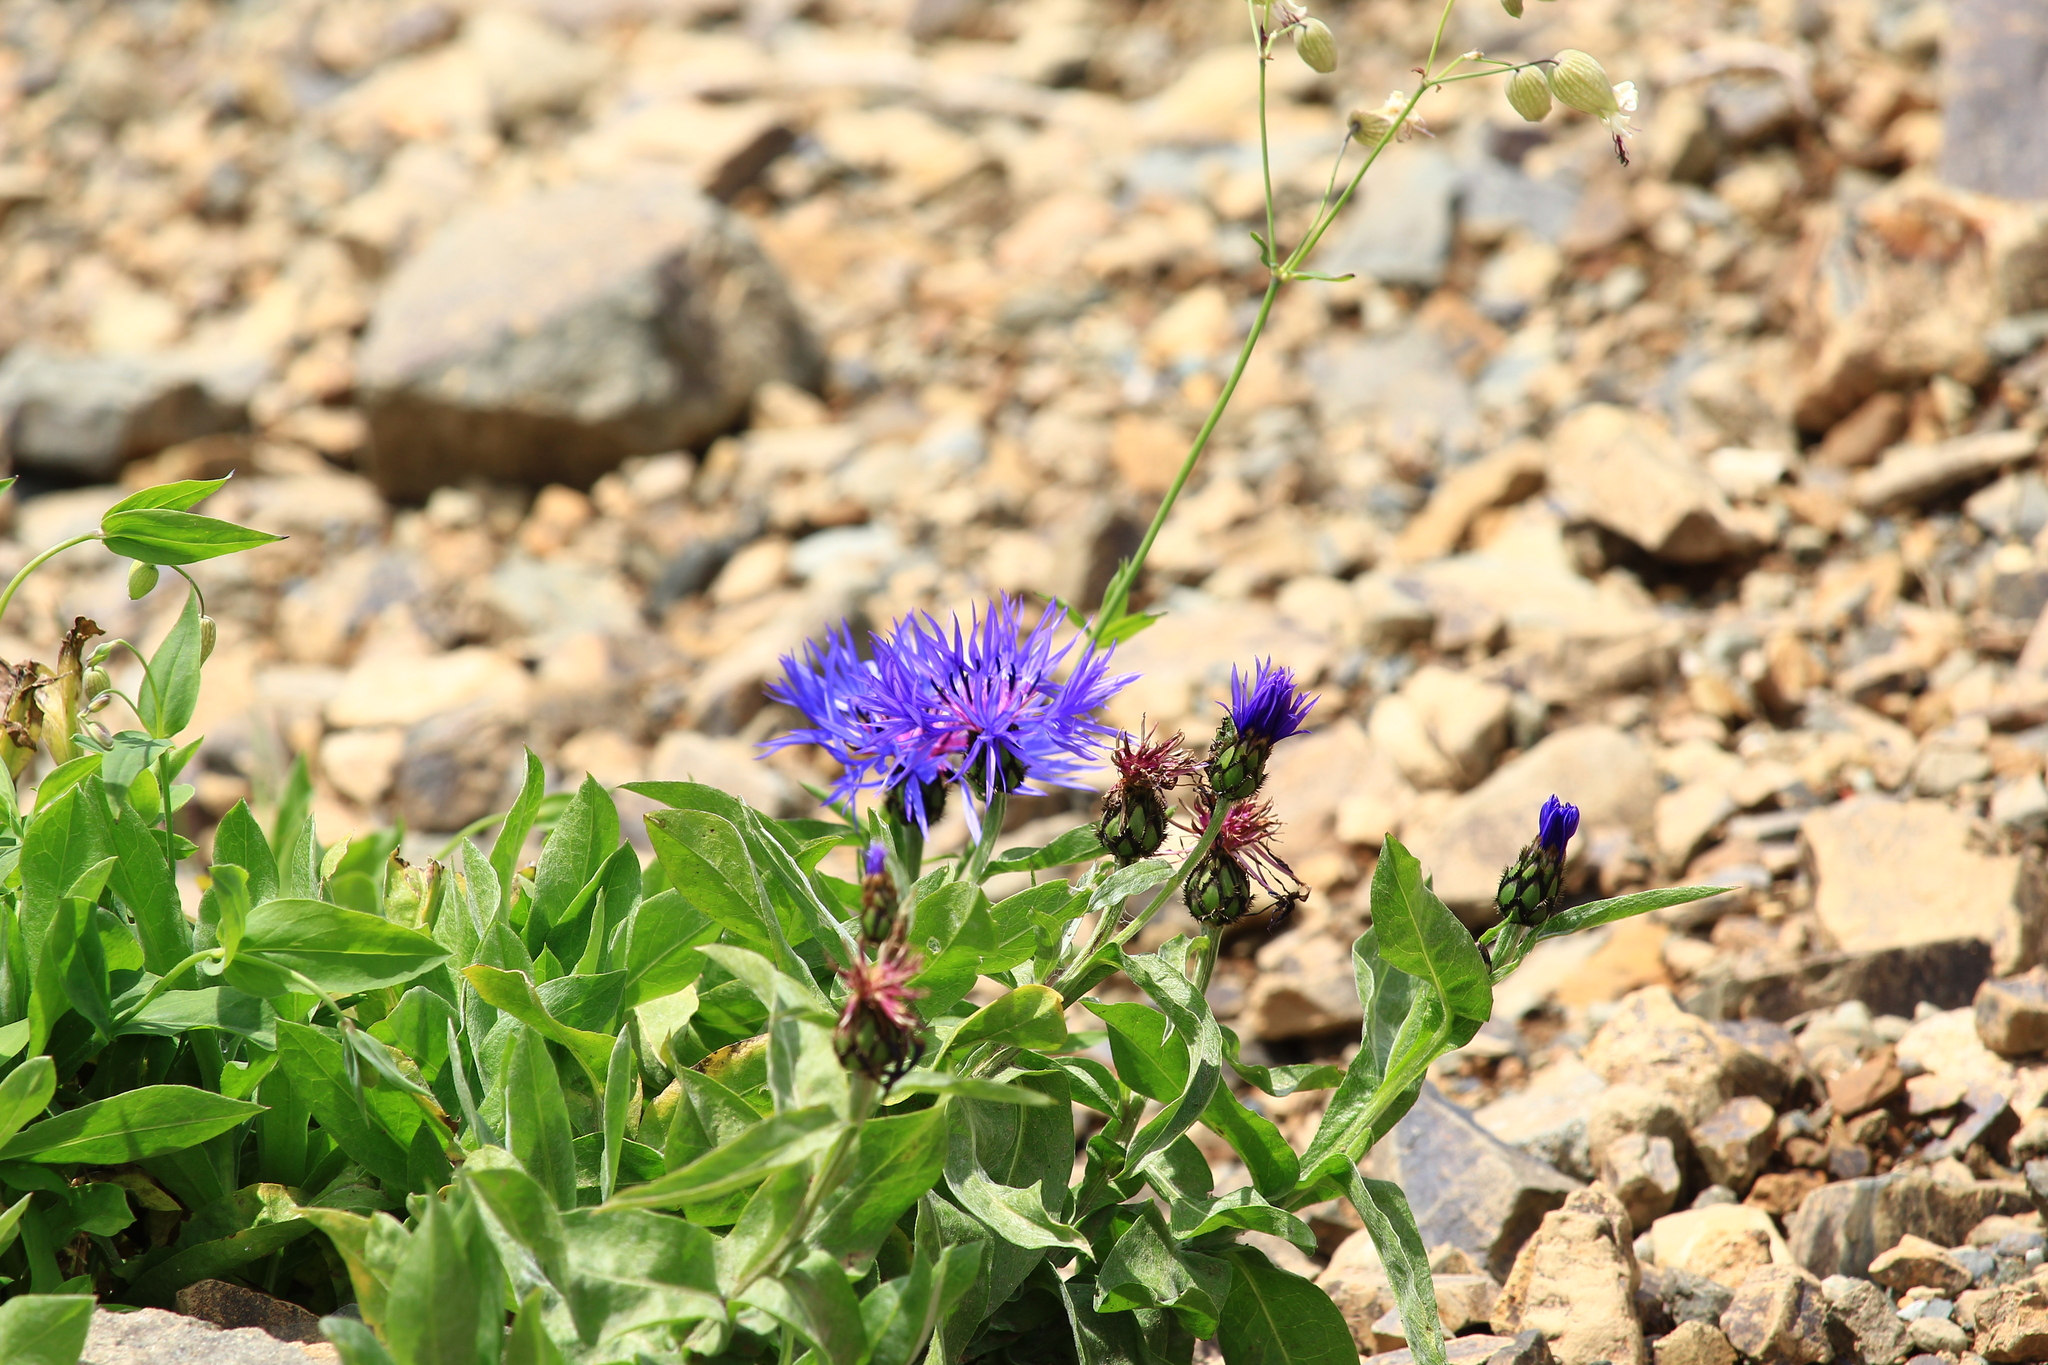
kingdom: Plantae
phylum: Tracheophyta
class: Magnoliopsida
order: Asterales
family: Asteraceae
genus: Centaurea
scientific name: Centaurea nigrofimbria
